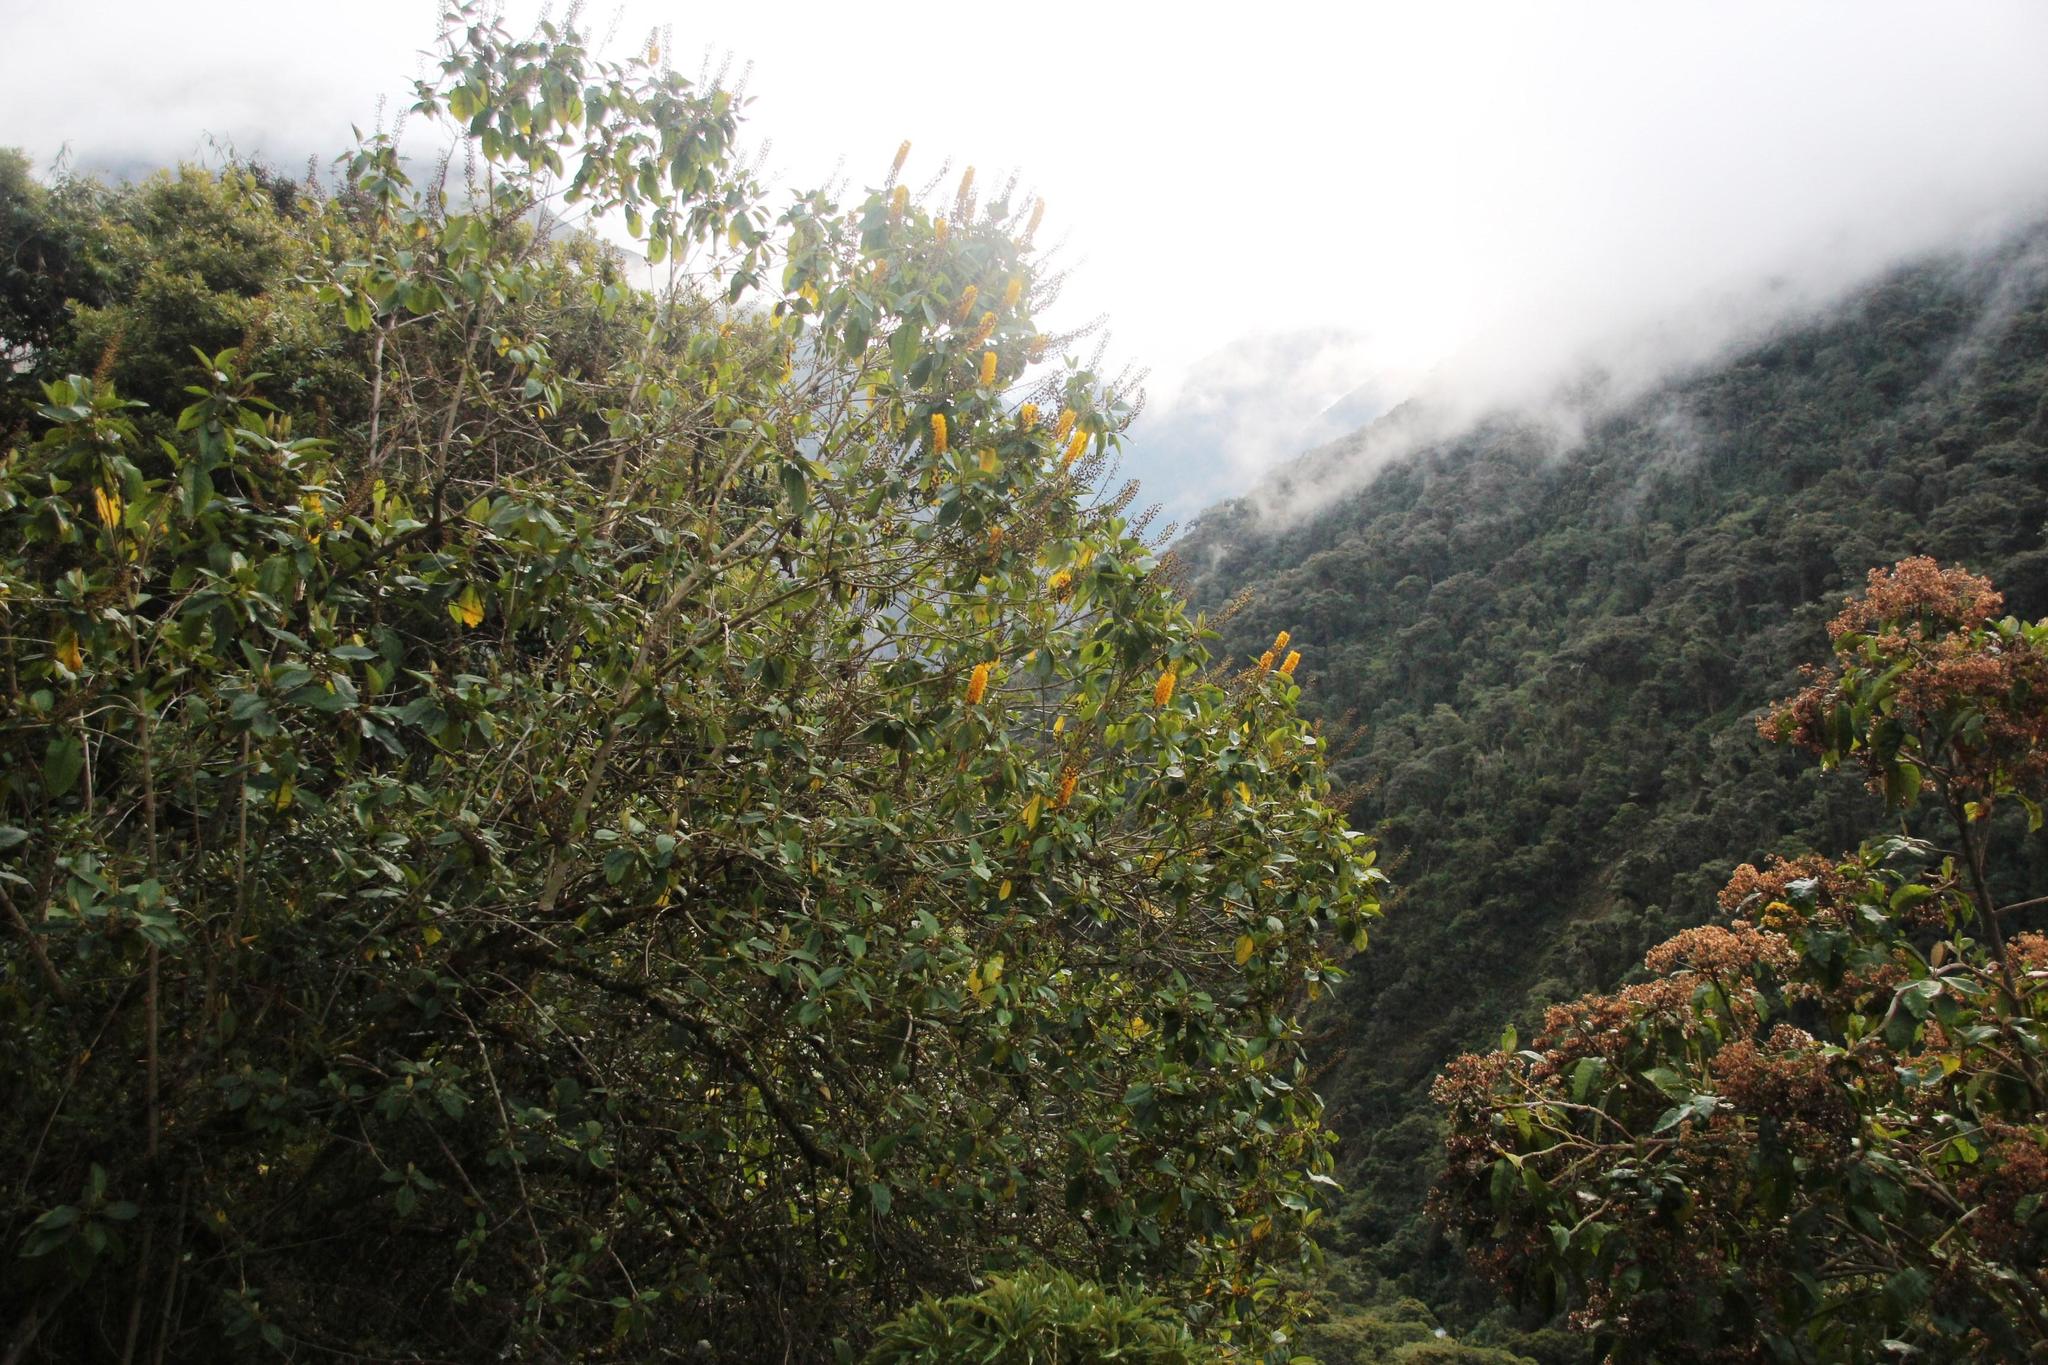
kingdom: Plantae
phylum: Tracheophyta
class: Magnoliopsida
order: Malpighiales
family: Salicaceae
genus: Abatia
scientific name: Abatia spicata
